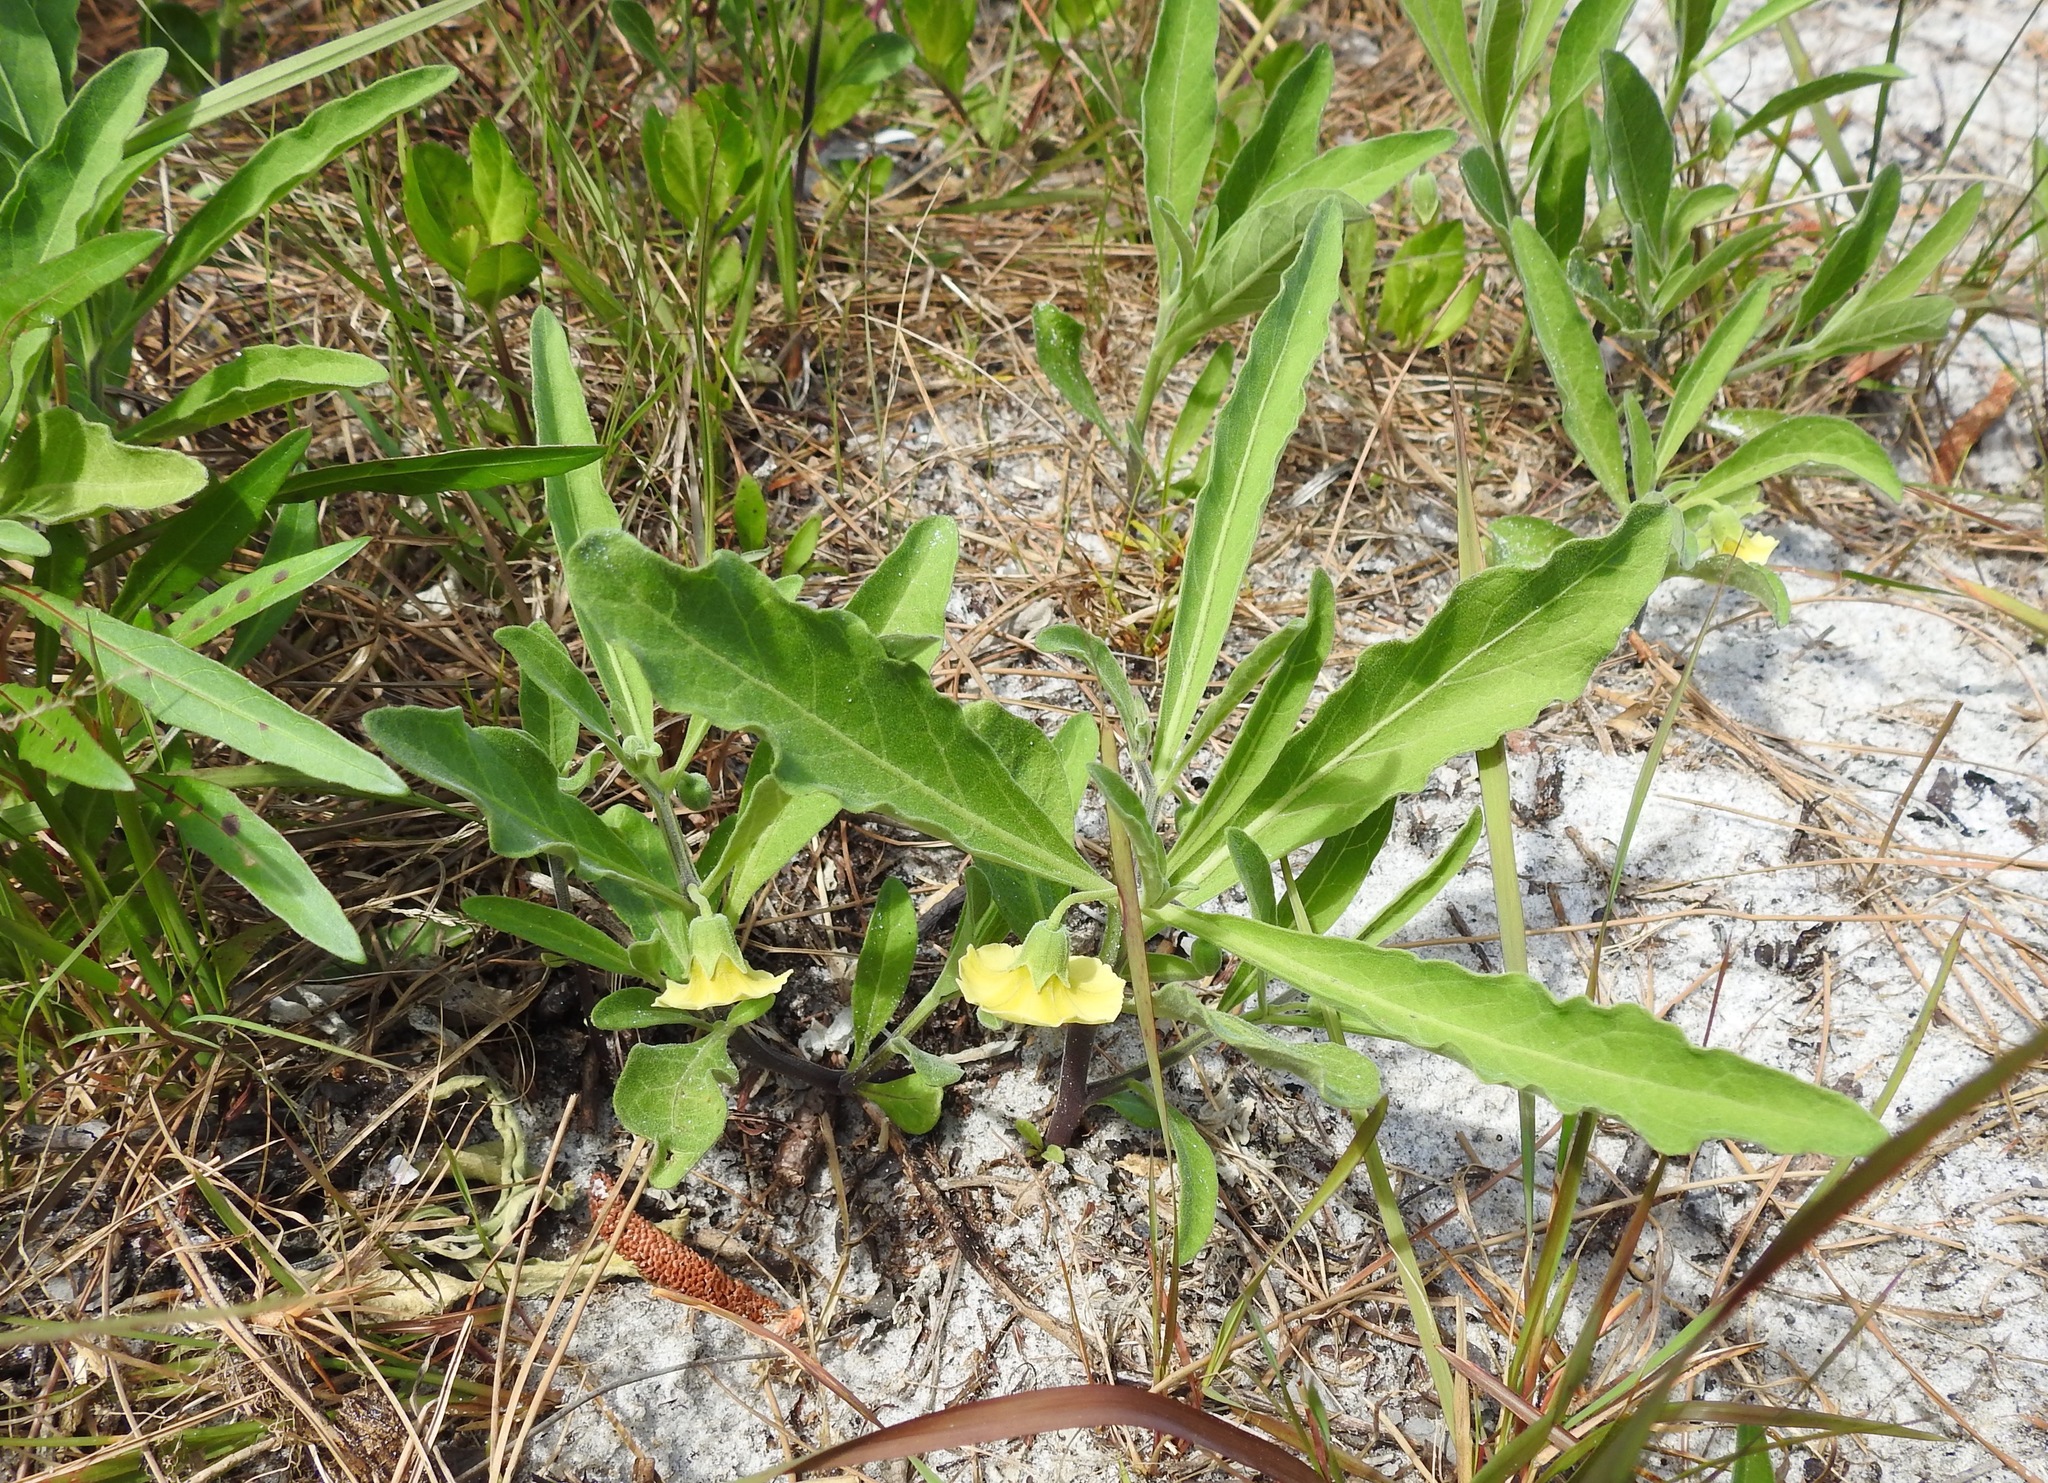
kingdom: Plantae
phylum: Tracheophyta
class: Magnoliopsida
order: Solanales
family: Solanaceae
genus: Physalis
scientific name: Physalis walteri
